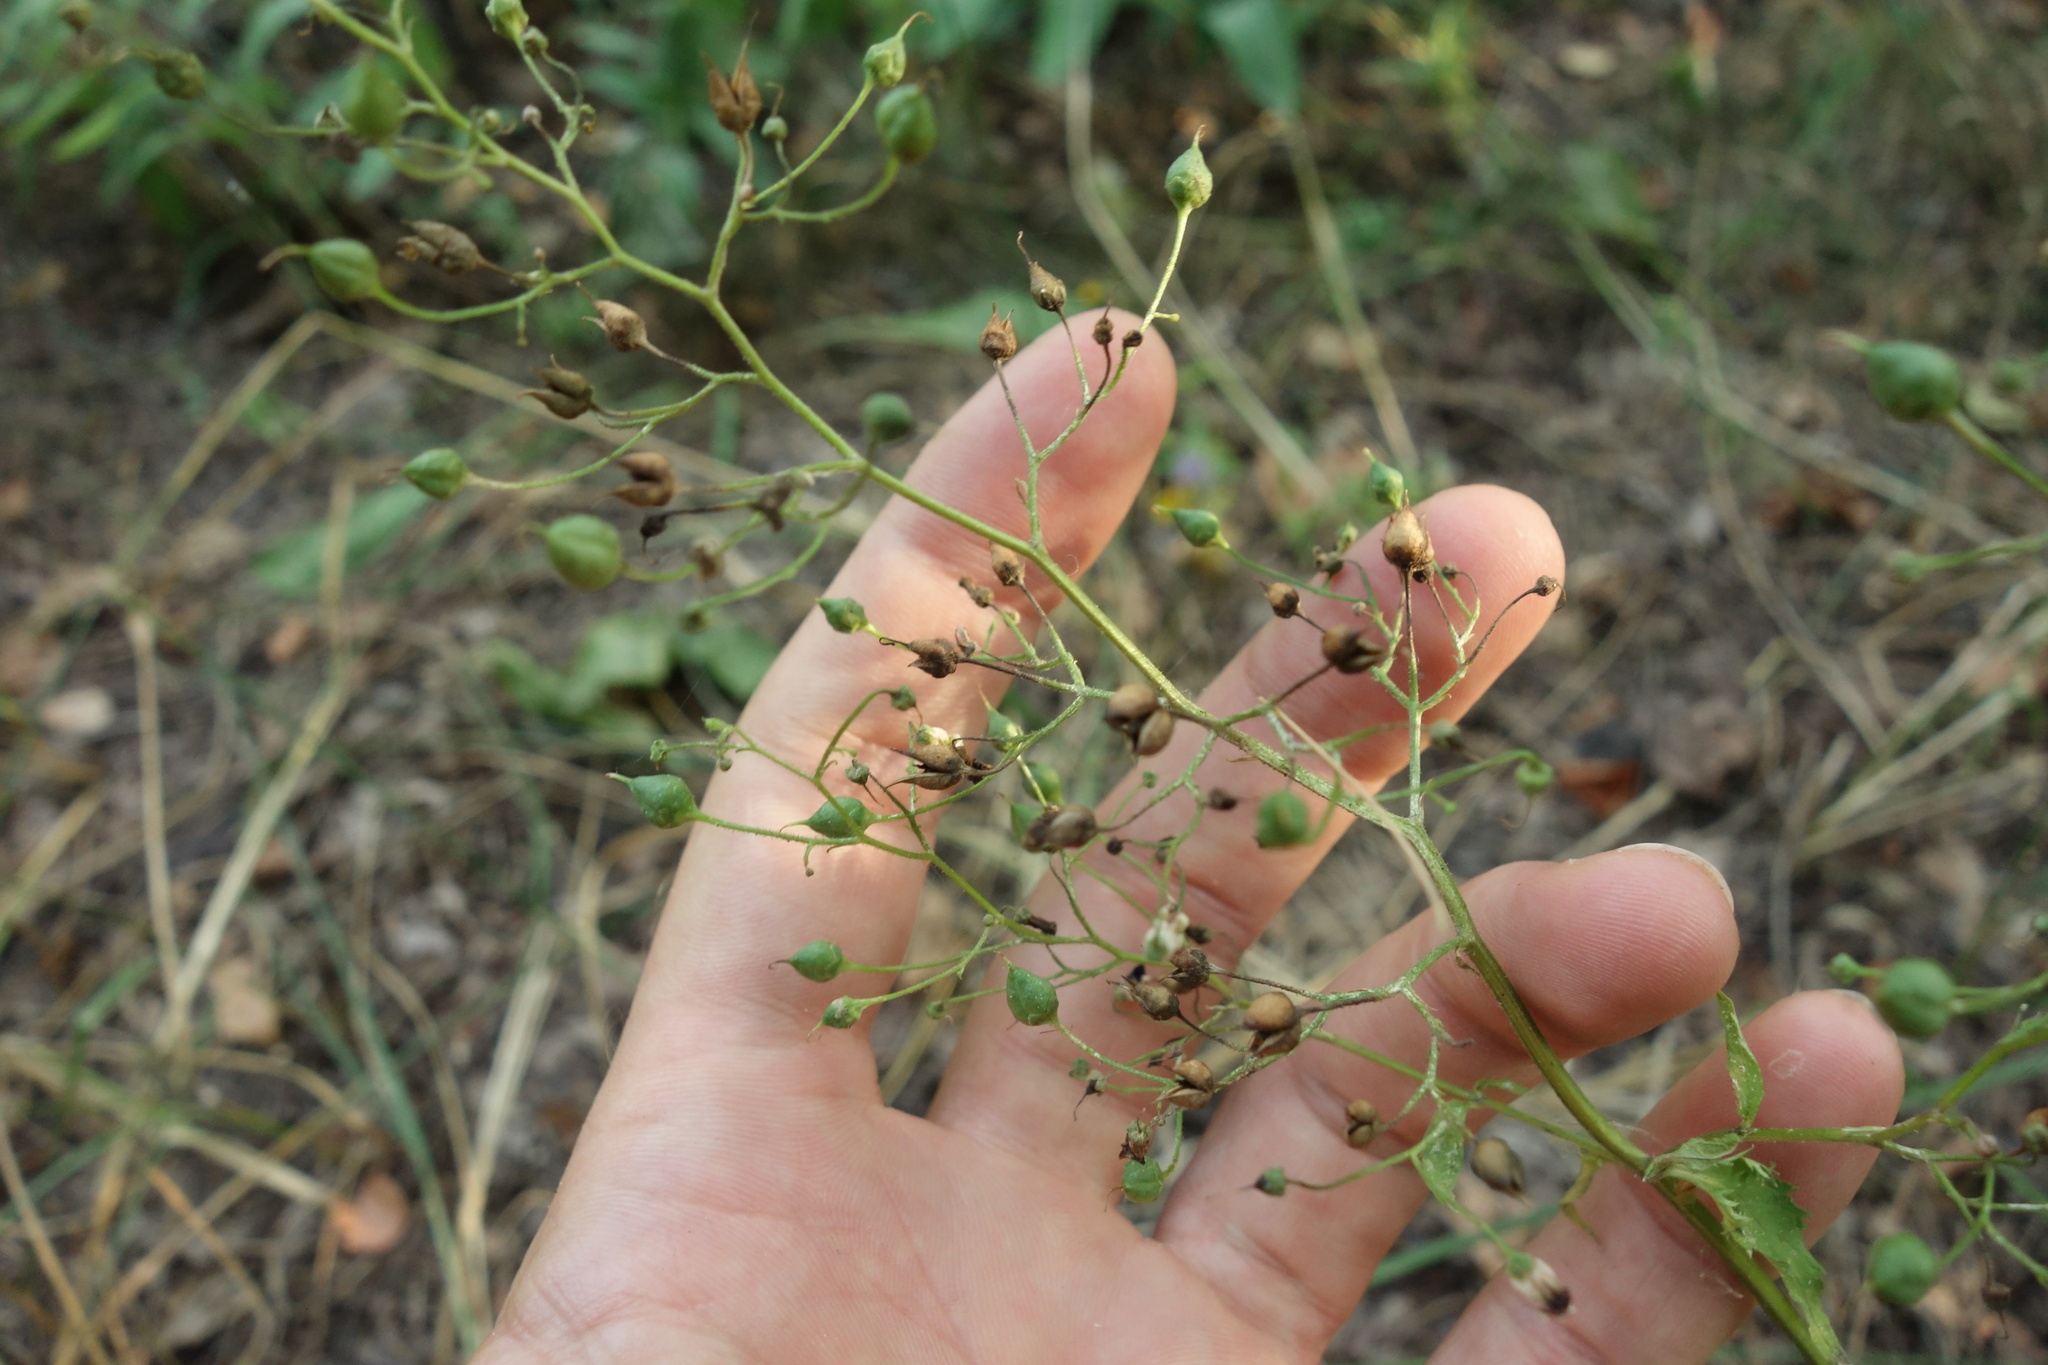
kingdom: Plantae
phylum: Tracheophyta
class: Magnoliopsida
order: Lamiales
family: Scrophulariaceae
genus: Scrophularia
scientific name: Scrophularia nodosa
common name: Common figwort
